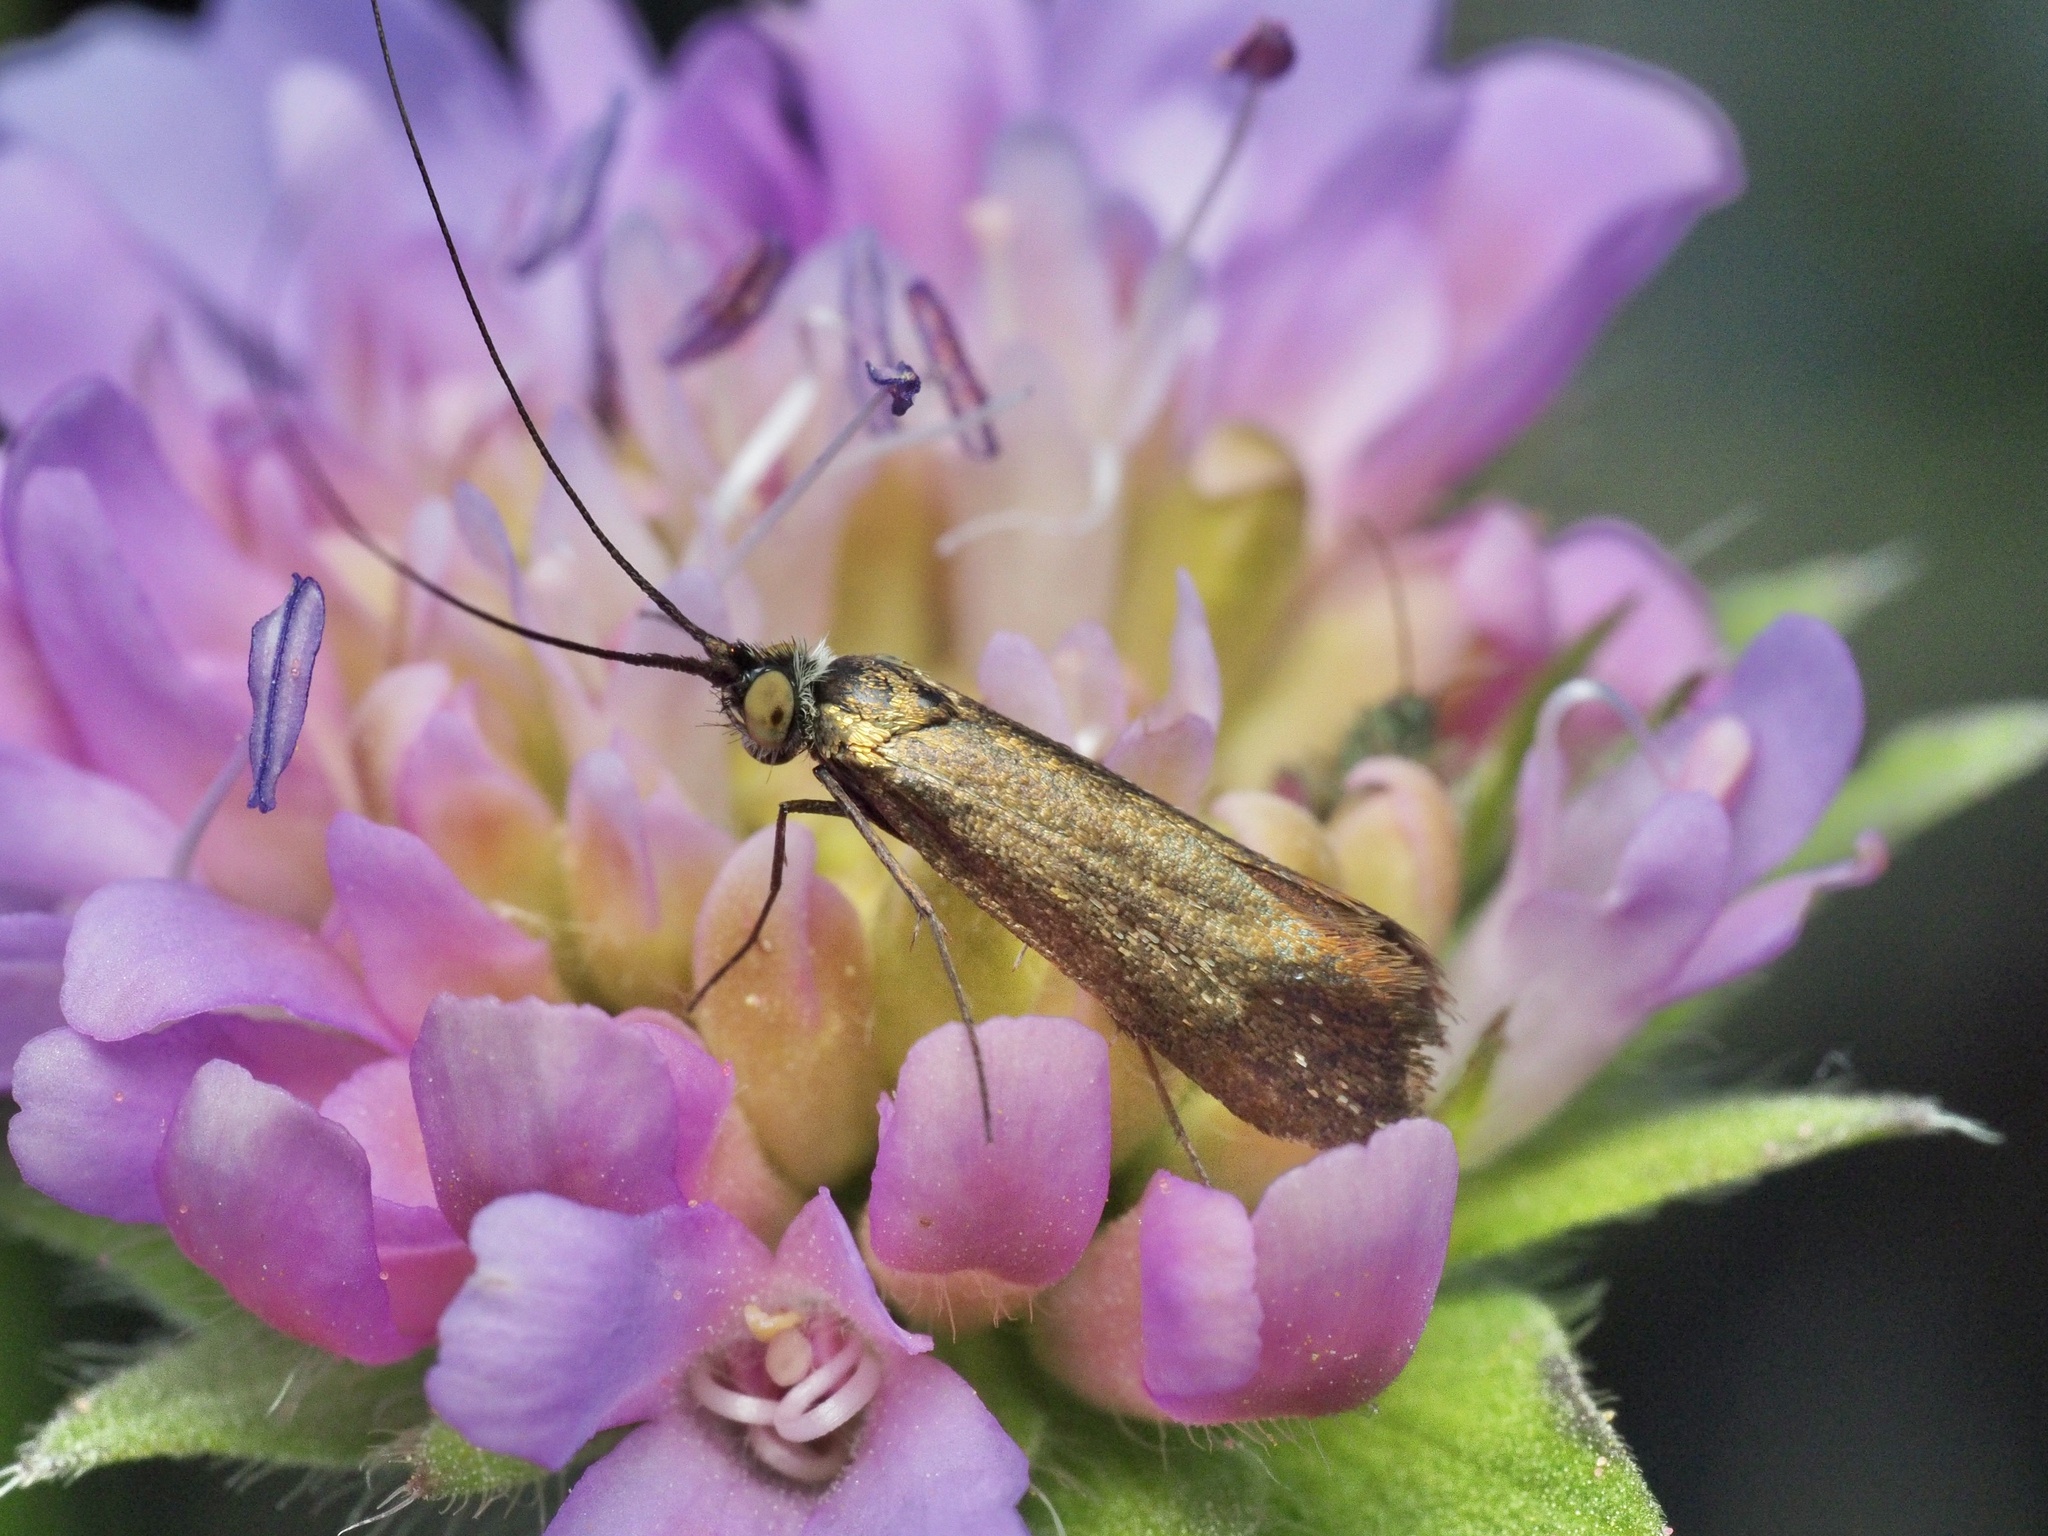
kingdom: Animalia
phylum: Arthropoda
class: Insecta
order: Lepidoptera
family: Adelidae
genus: Nemophora
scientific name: Nemophora metallica
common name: Brassy long-horn
